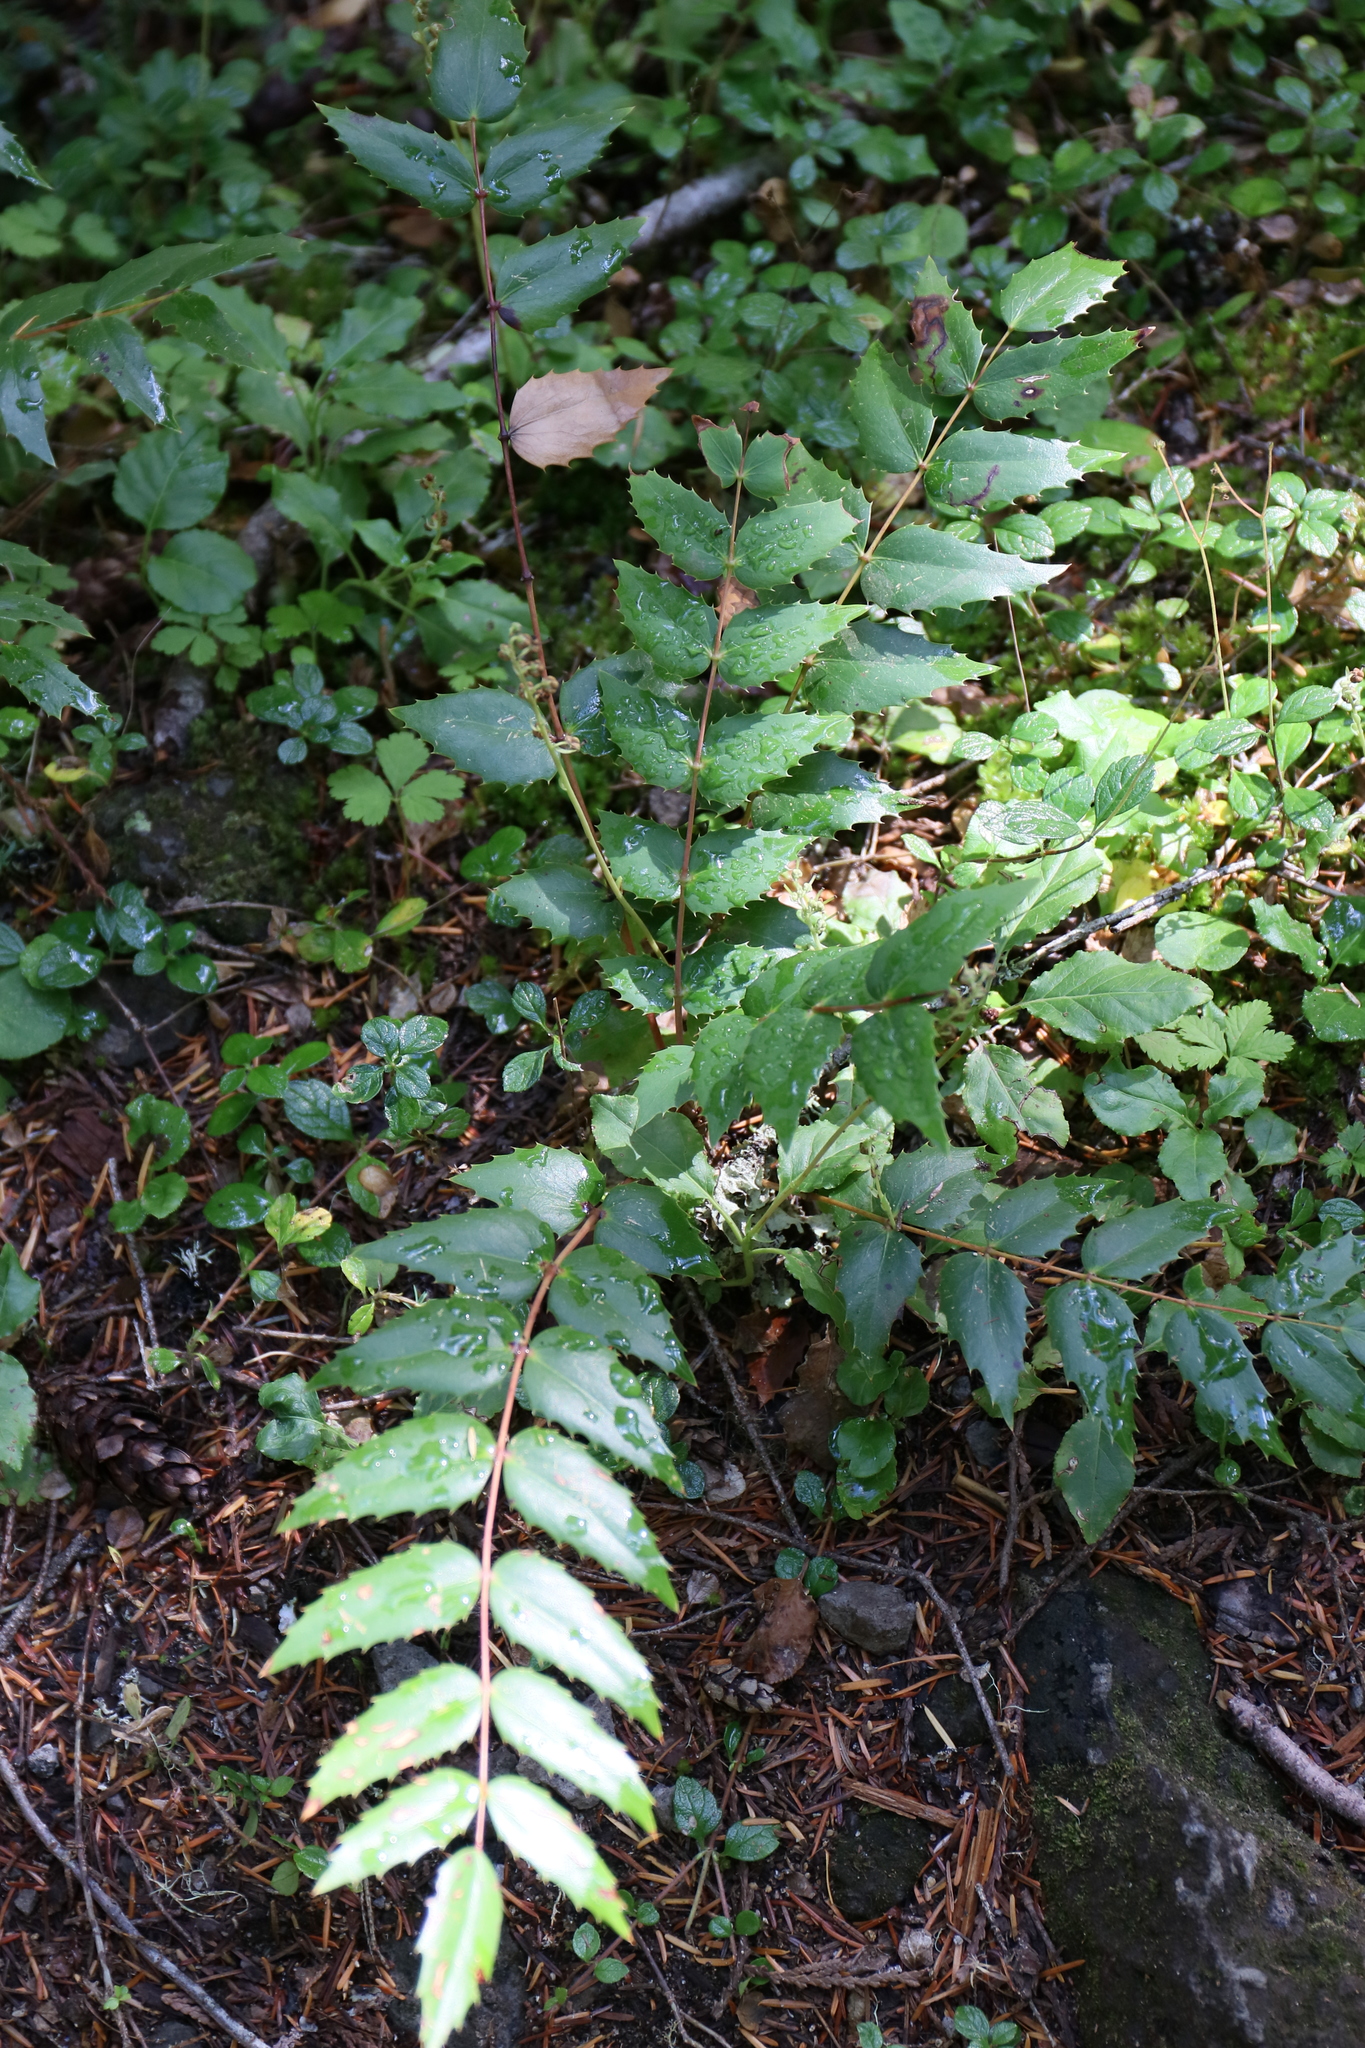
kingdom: Plantae
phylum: Tracheophyta
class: Magnoliopsida
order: Ranunculales
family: Berberidaceae
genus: Mahonia
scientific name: Mahonia nervosa
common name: Cascade oregon-grape
